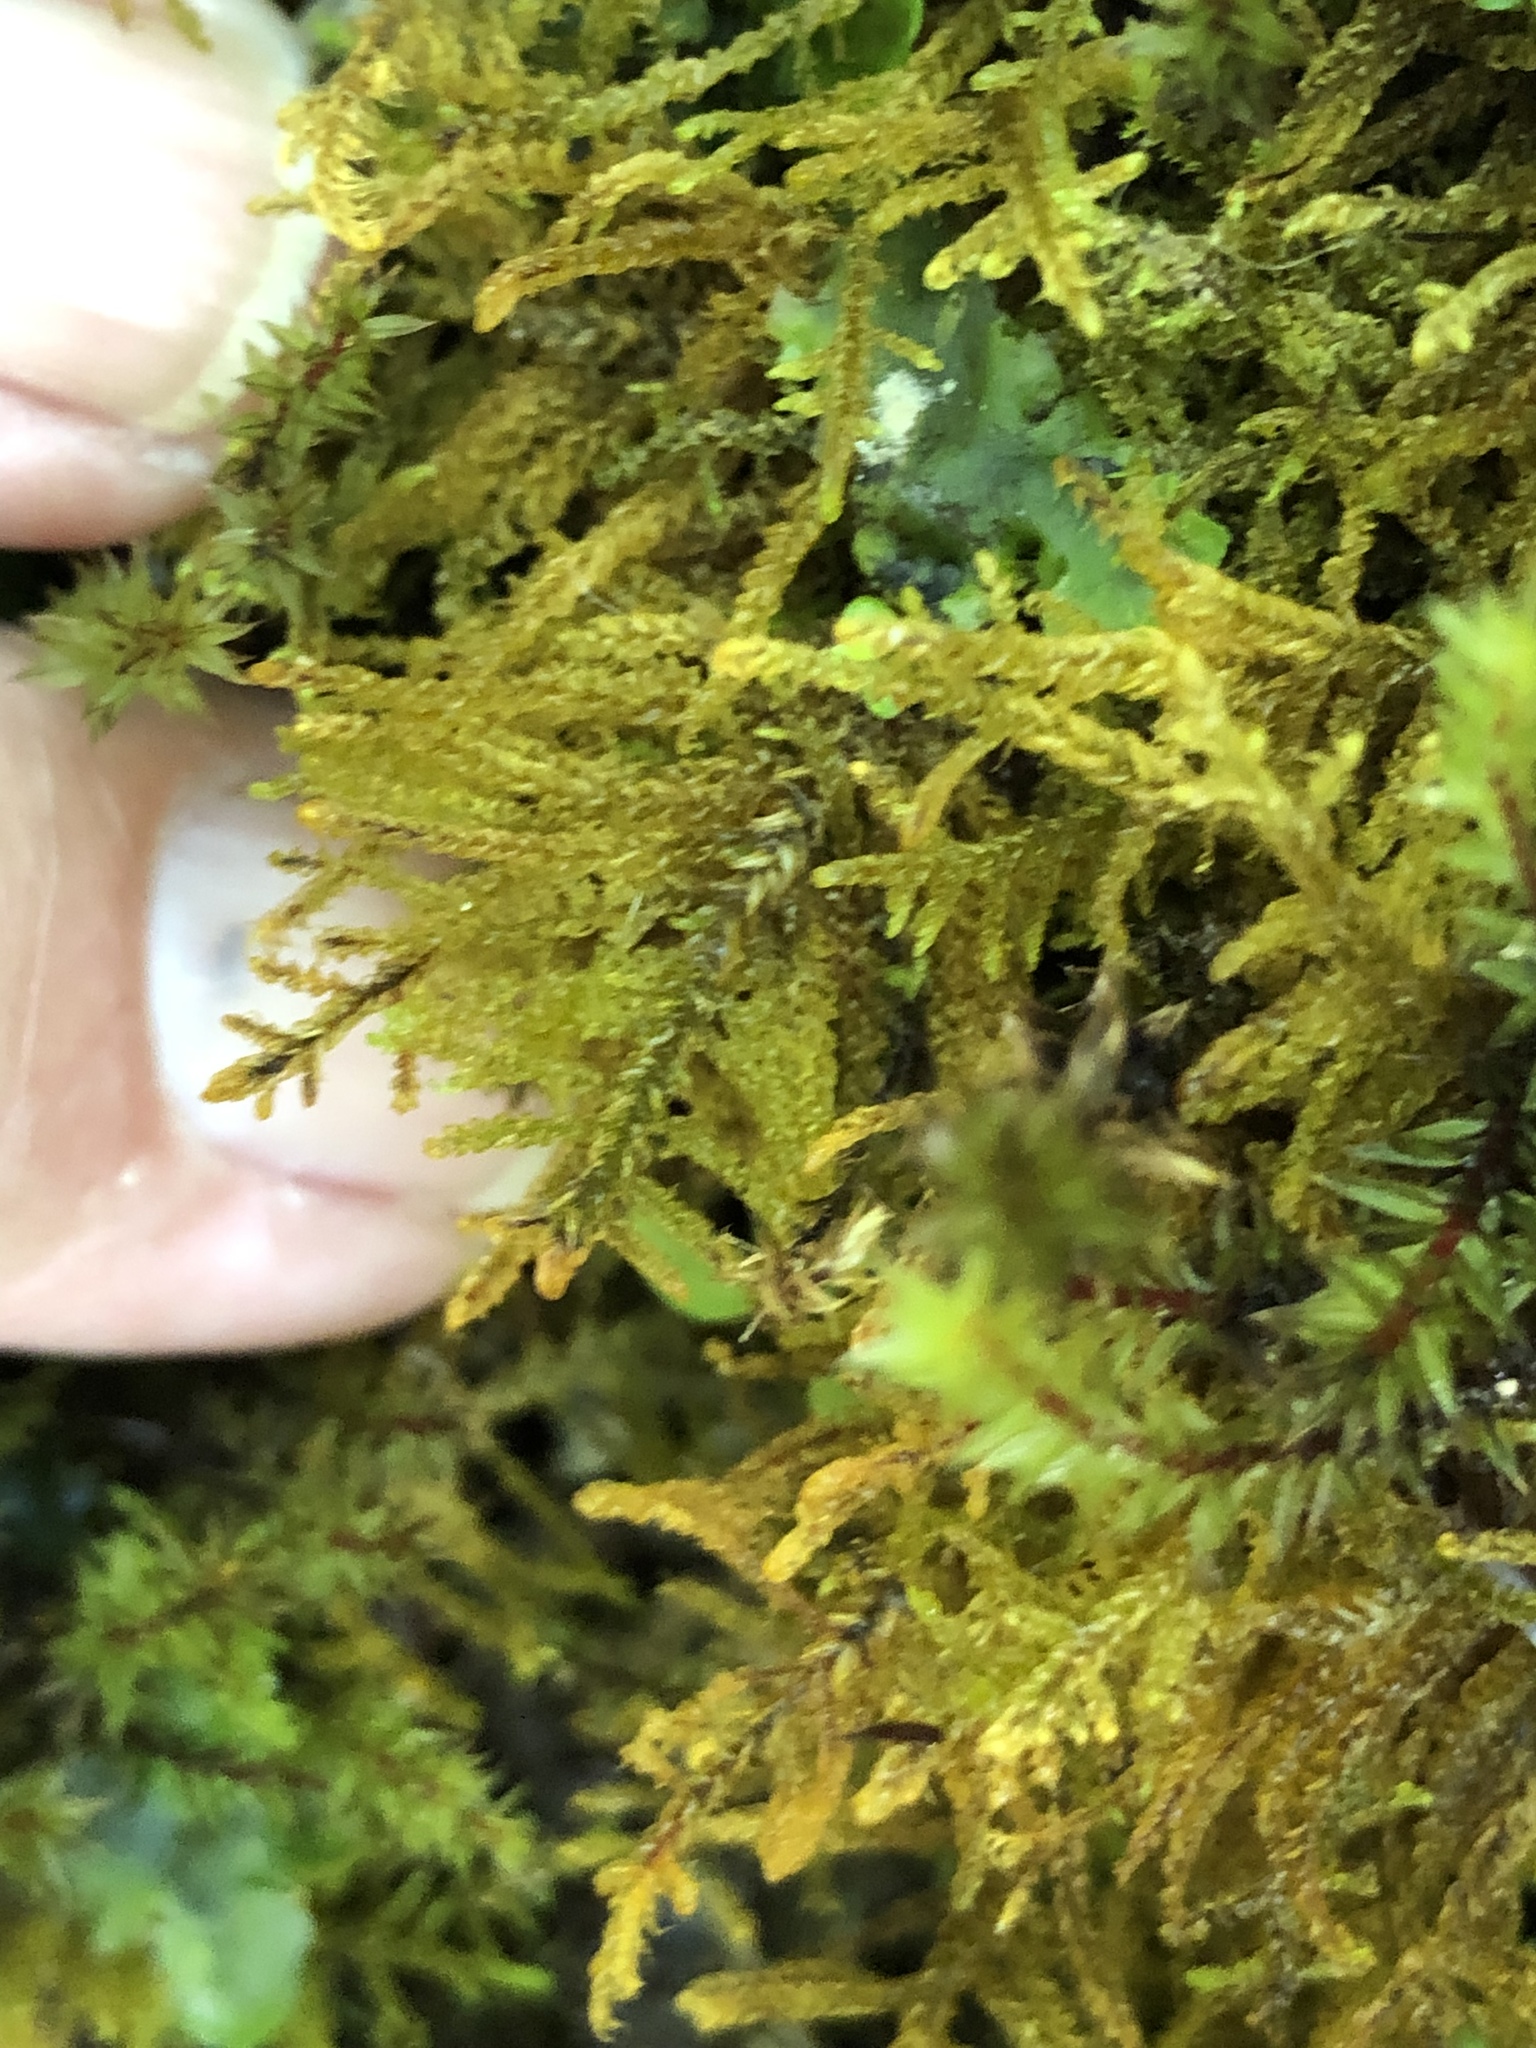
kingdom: Plantae
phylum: Bryophyta
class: Bryopsida
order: Hypnales
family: Hylocomiaceae
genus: Hylocomium
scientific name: Hylocomium splendens
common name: Stairstep moss
